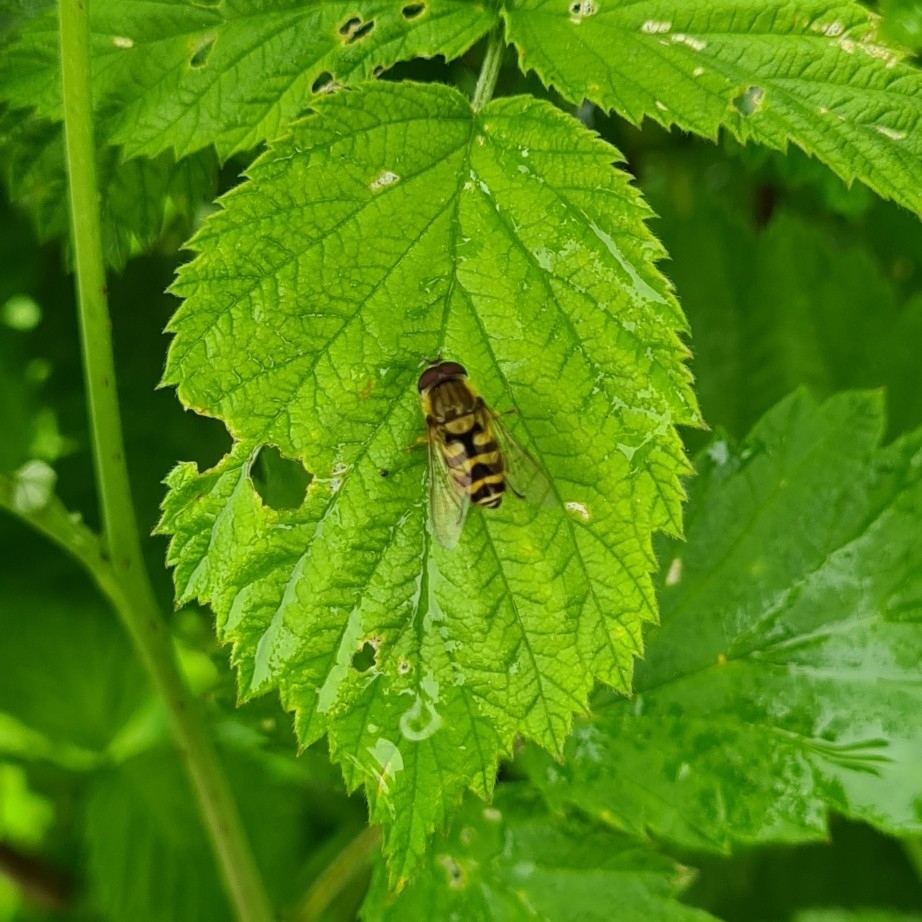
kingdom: Animalia
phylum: Arthropoda
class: Insecta
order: Diptera
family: Syrphidae
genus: Syrphus
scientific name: Syrphus
